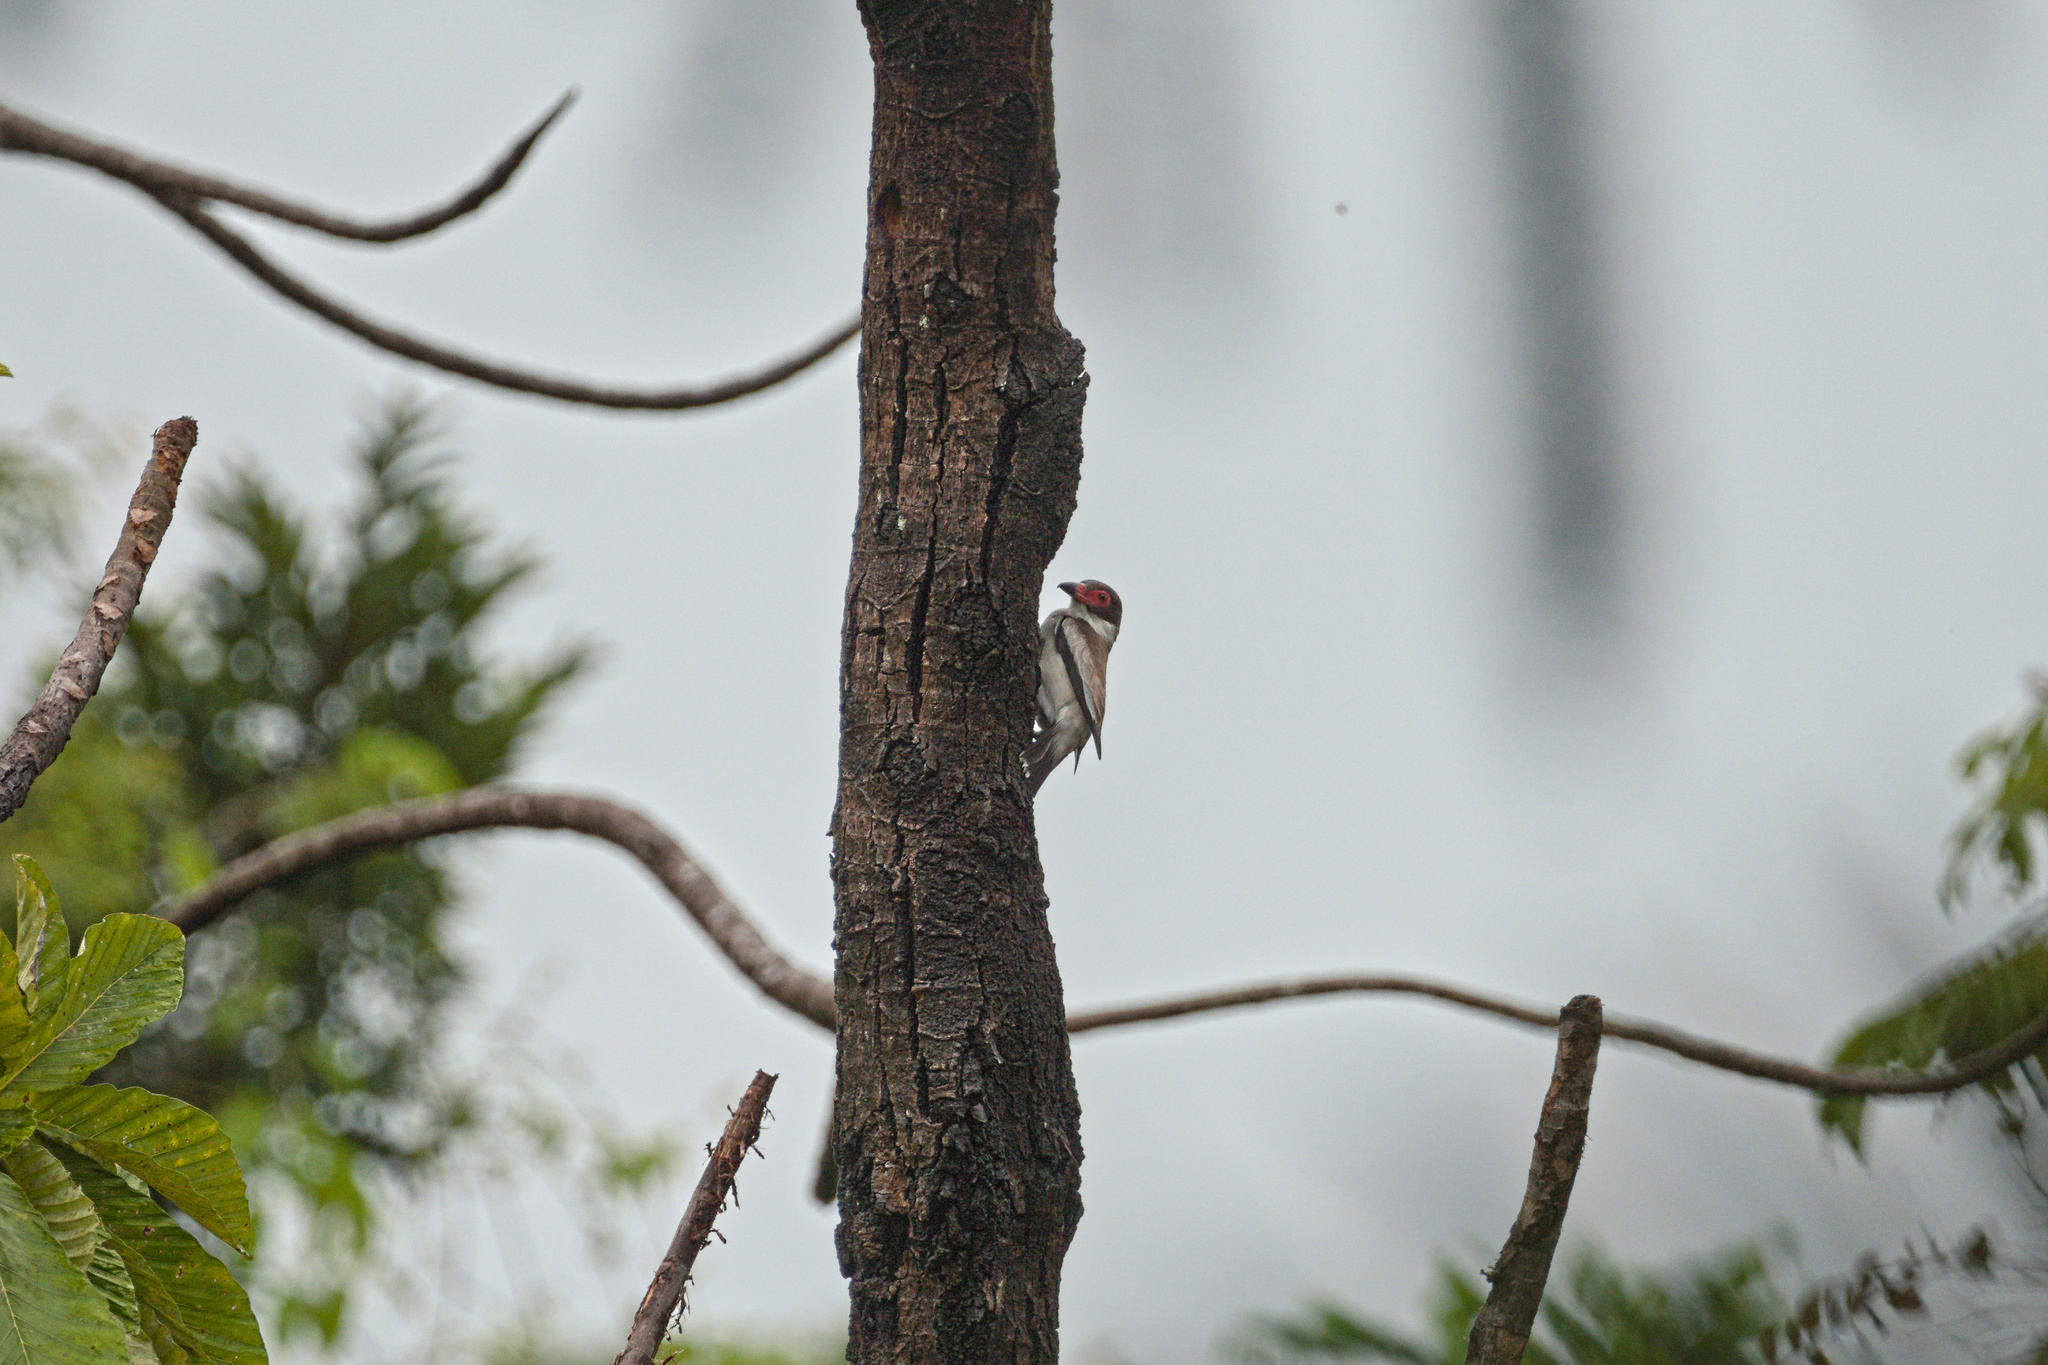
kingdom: Animalia
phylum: Chordata
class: Aves
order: Passeriformes
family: Cotingidae
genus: Tityra
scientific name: Tityra semifasciata
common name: Masked tityra
